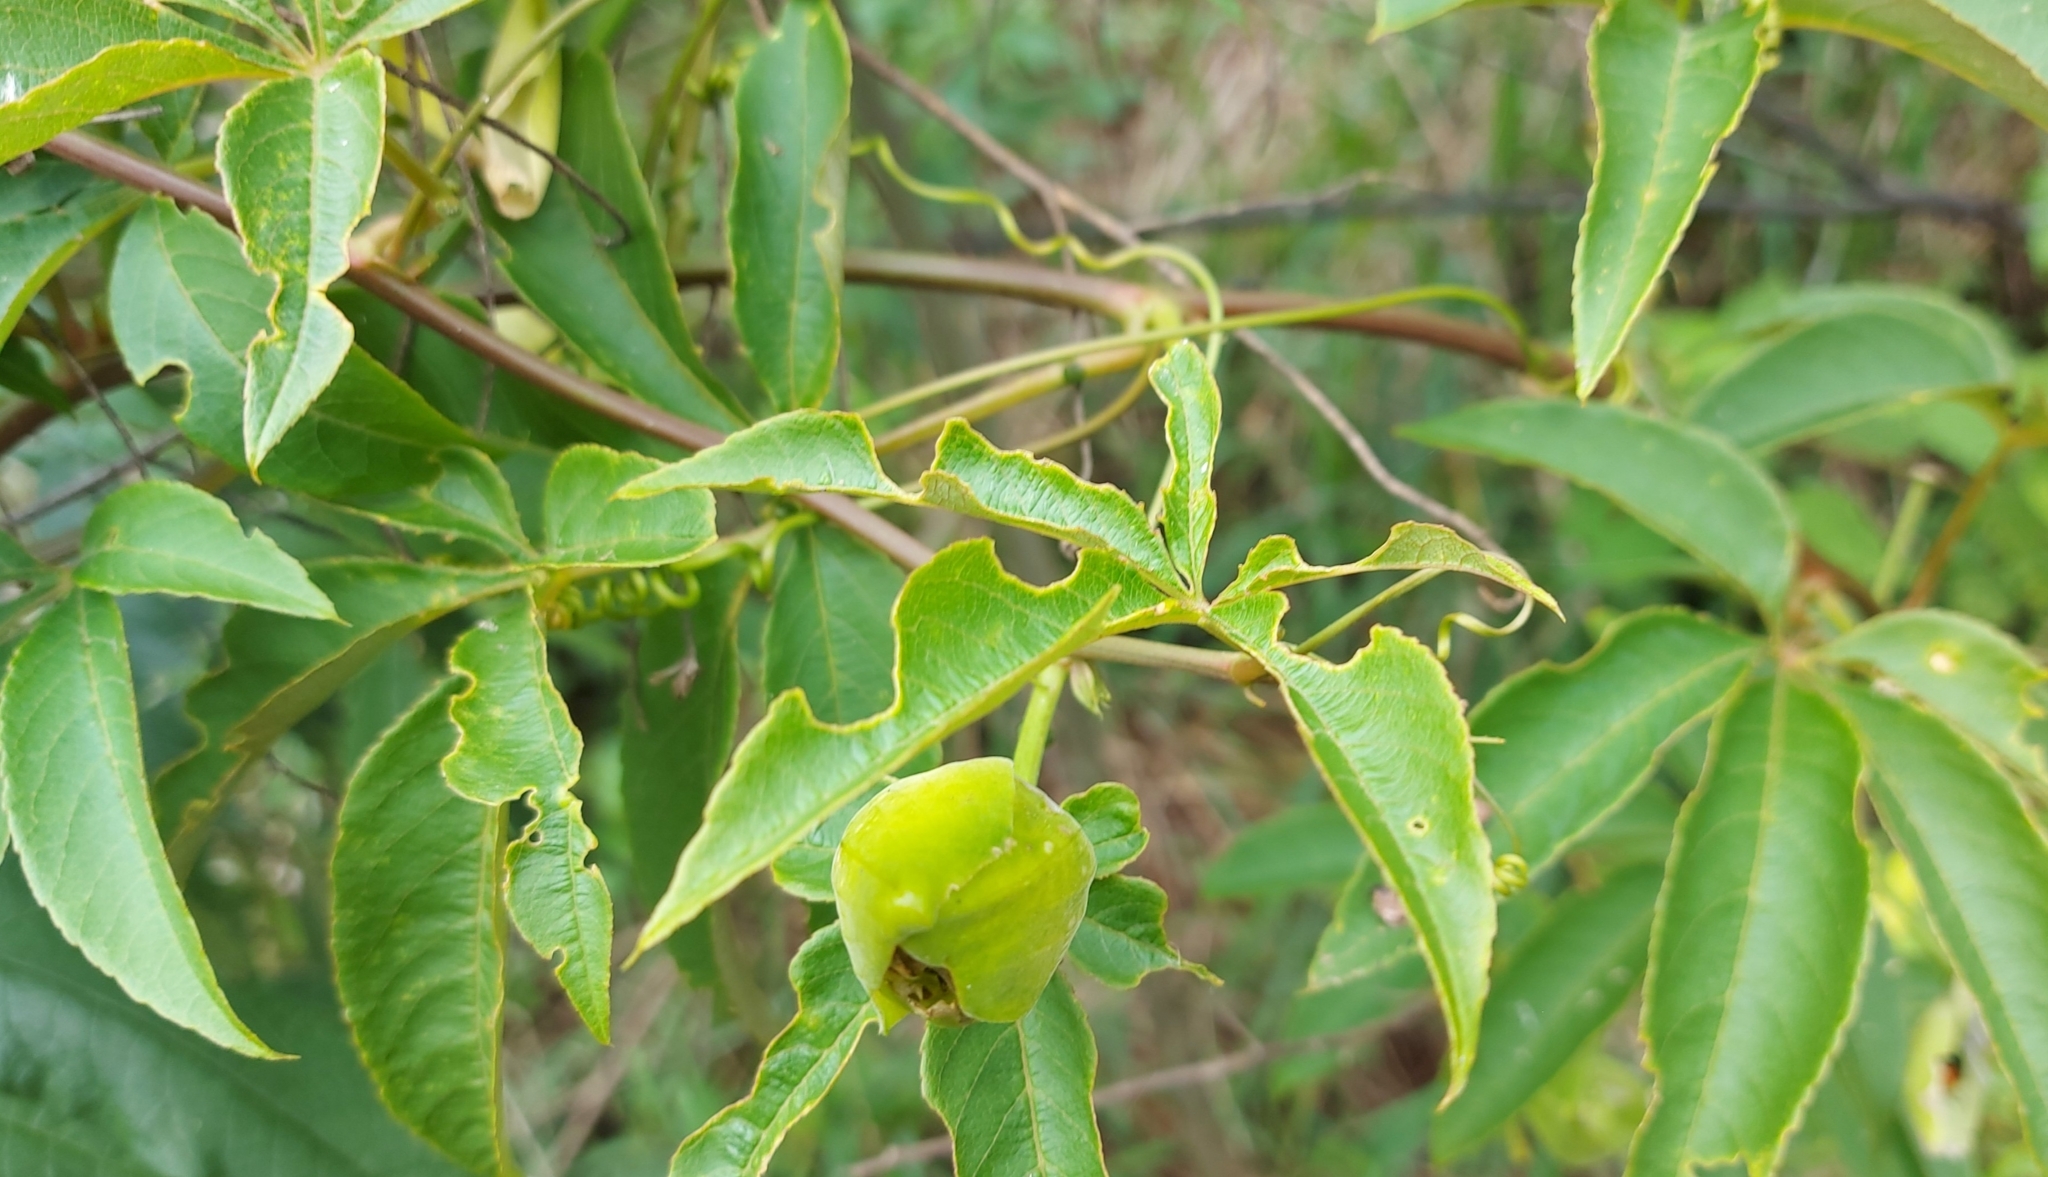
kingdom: Plantae
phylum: Tracheophyta
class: Magnoliopsida
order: Malpighiales
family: Passifloraceae
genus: Passiflora
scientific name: Passiflora cincinnata
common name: Crato passionvine
